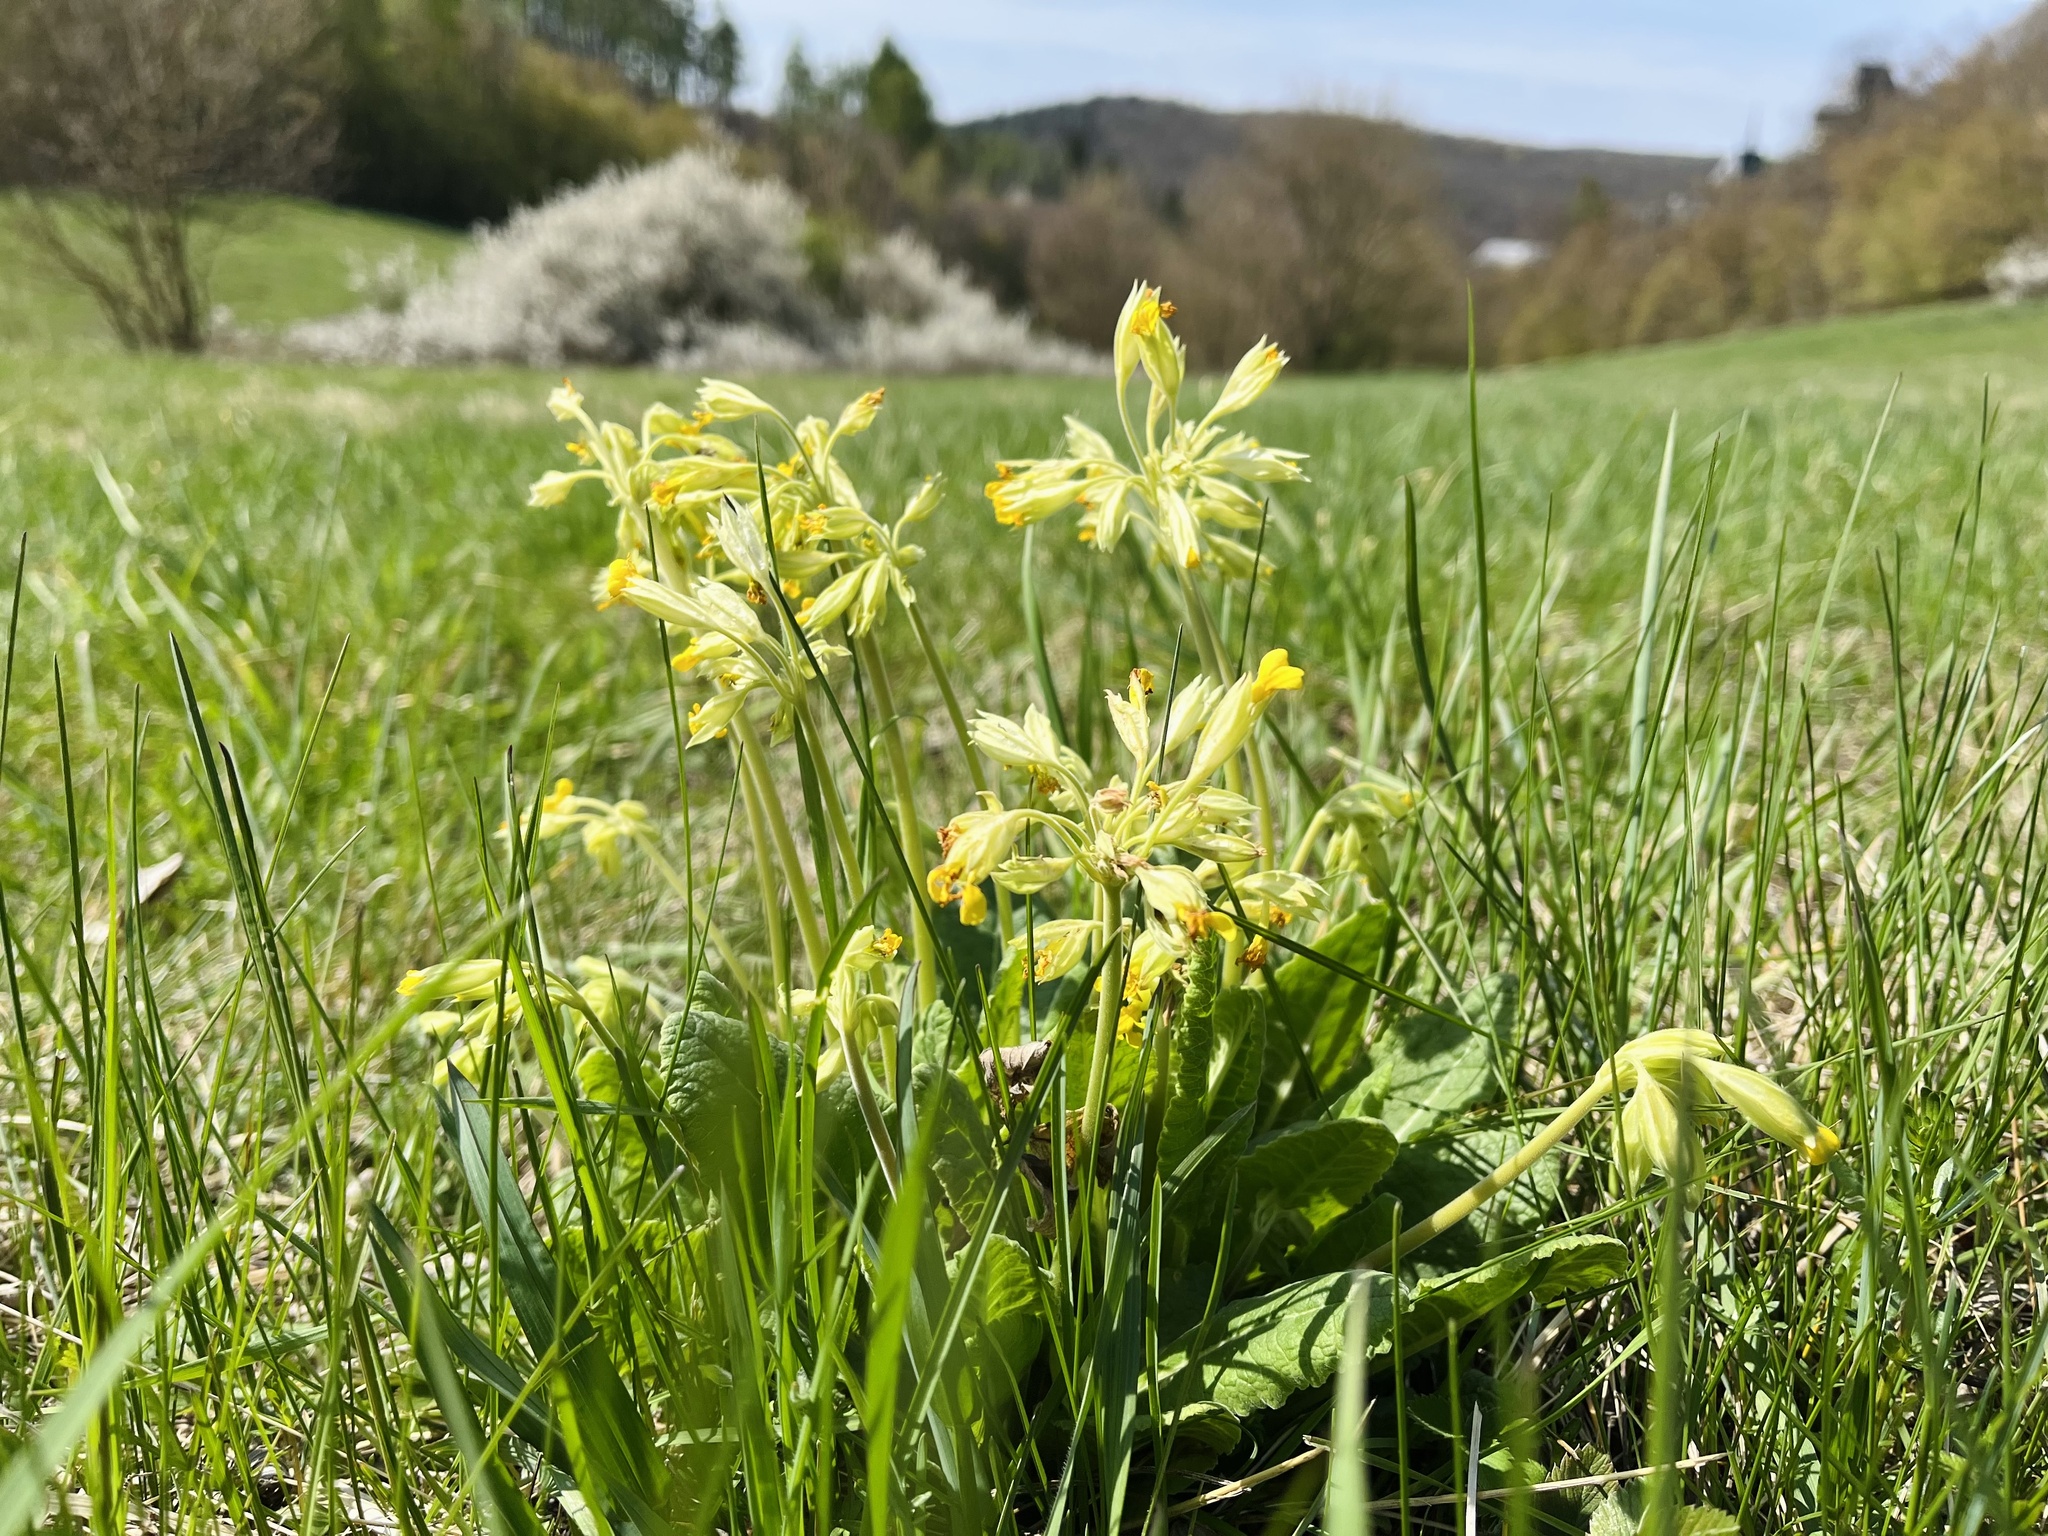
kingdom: Plantae
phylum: Tracheophyta
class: Magnoliopsida
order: Ericales
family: Primulaceae
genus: Primula
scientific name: Primula veris
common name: Cowslip
